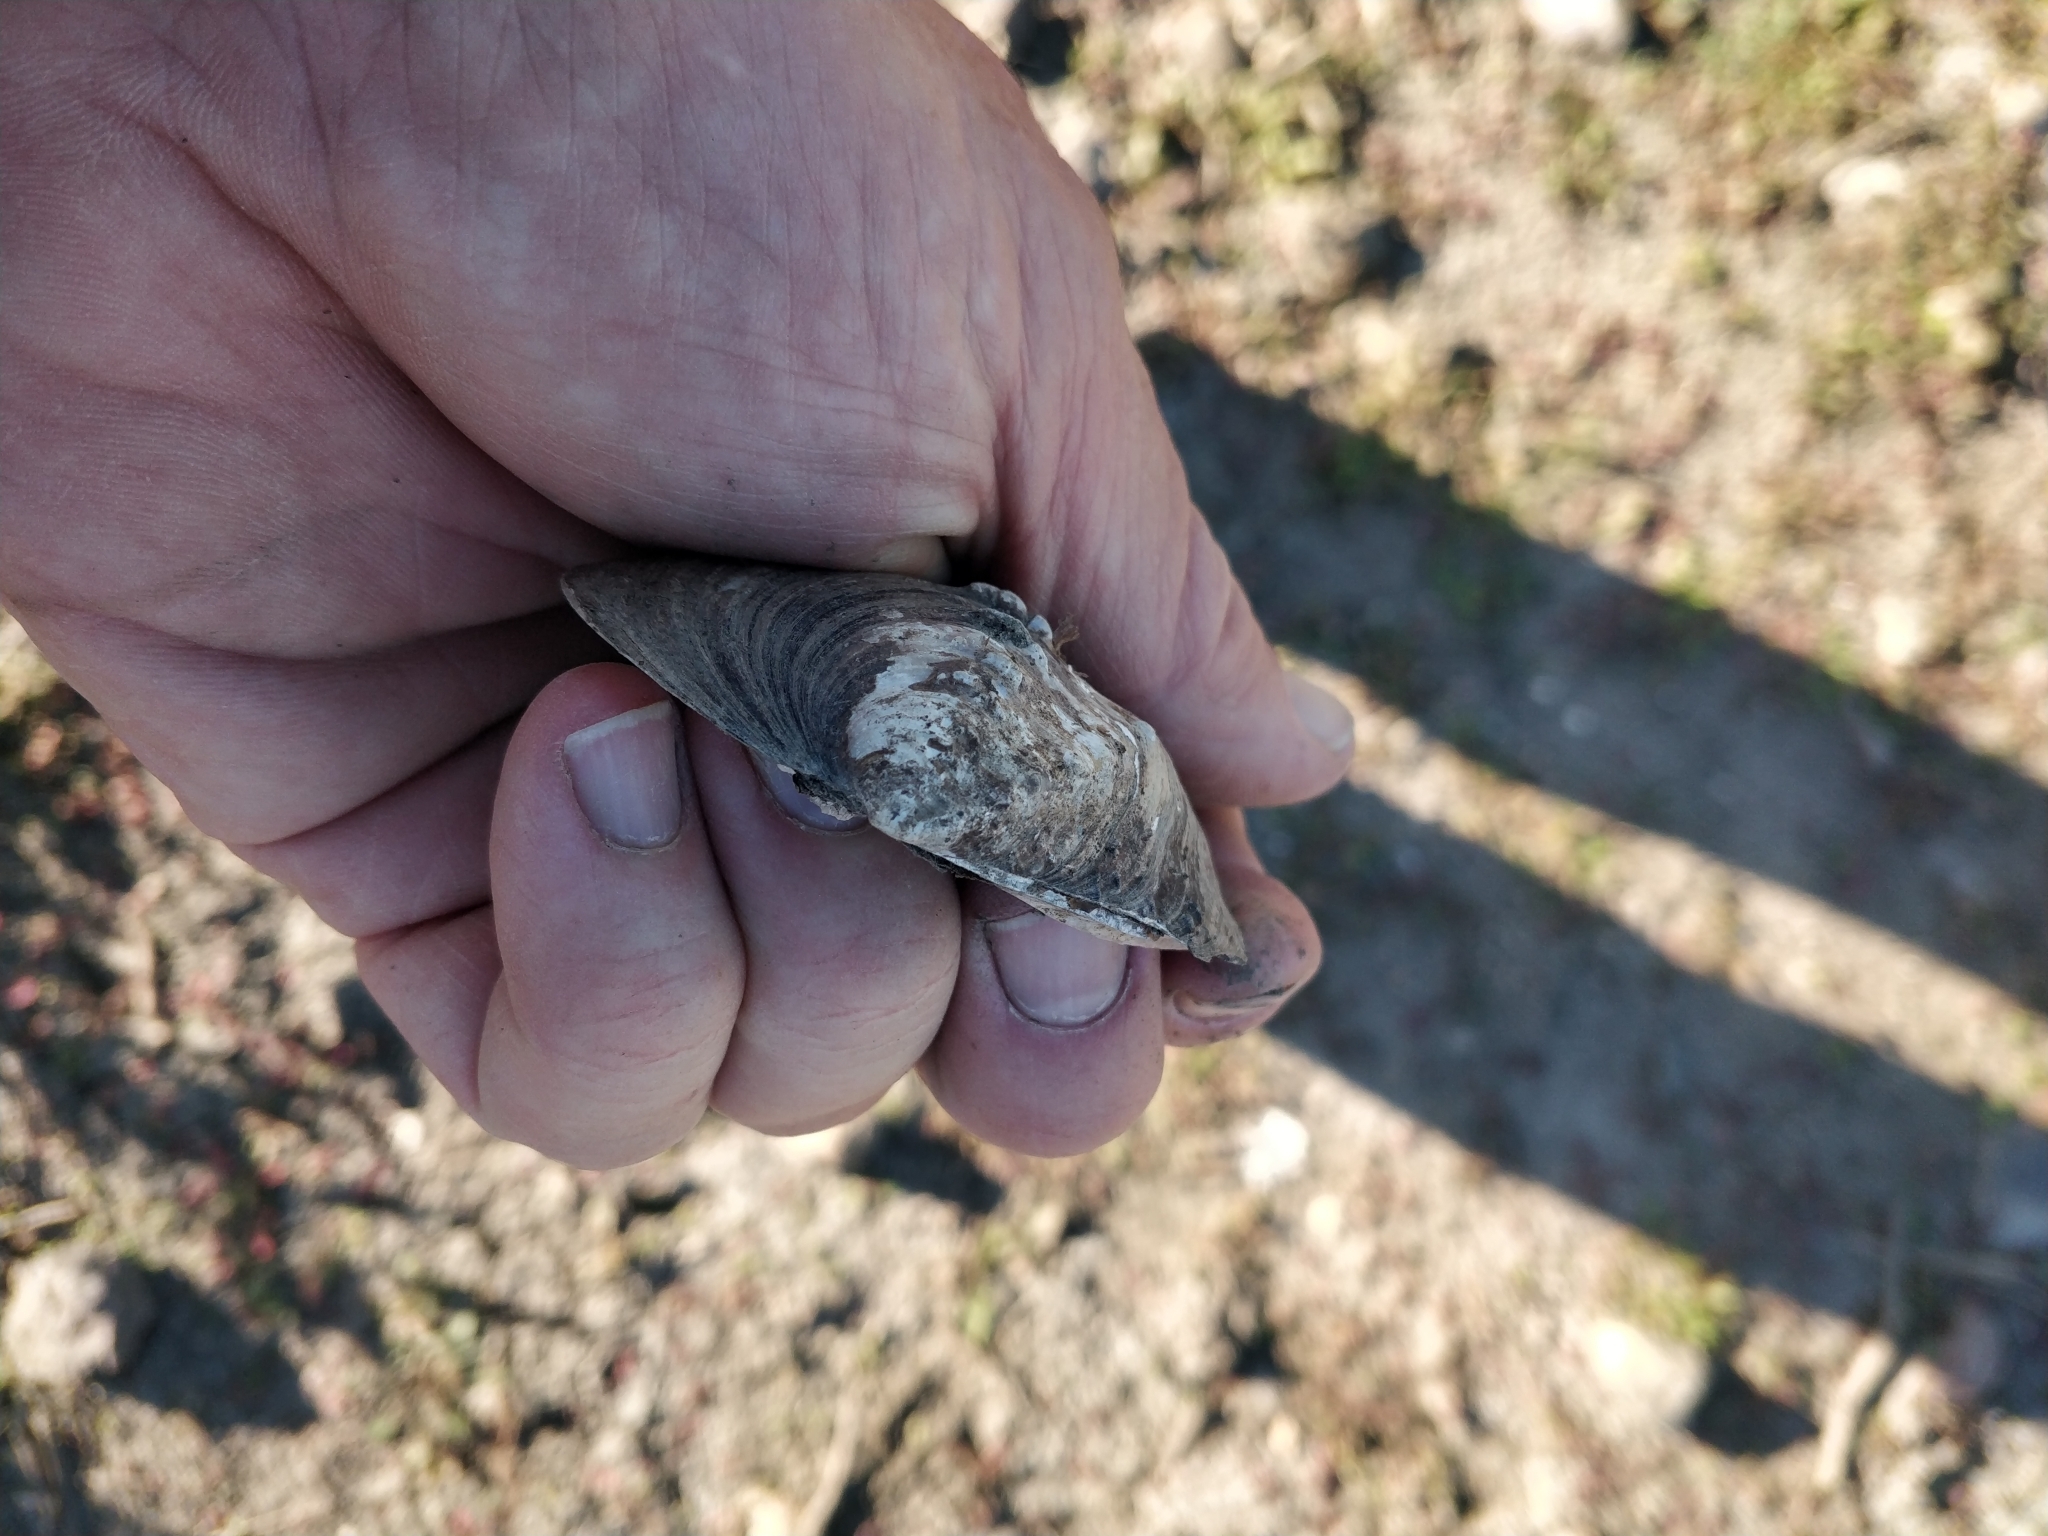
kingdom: Animalia
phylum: Mollusca
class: Bivalvia
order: Unionida
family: Unionidae
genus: Quadrula
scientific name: Quadrula quadrula
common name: Mapleleaf
